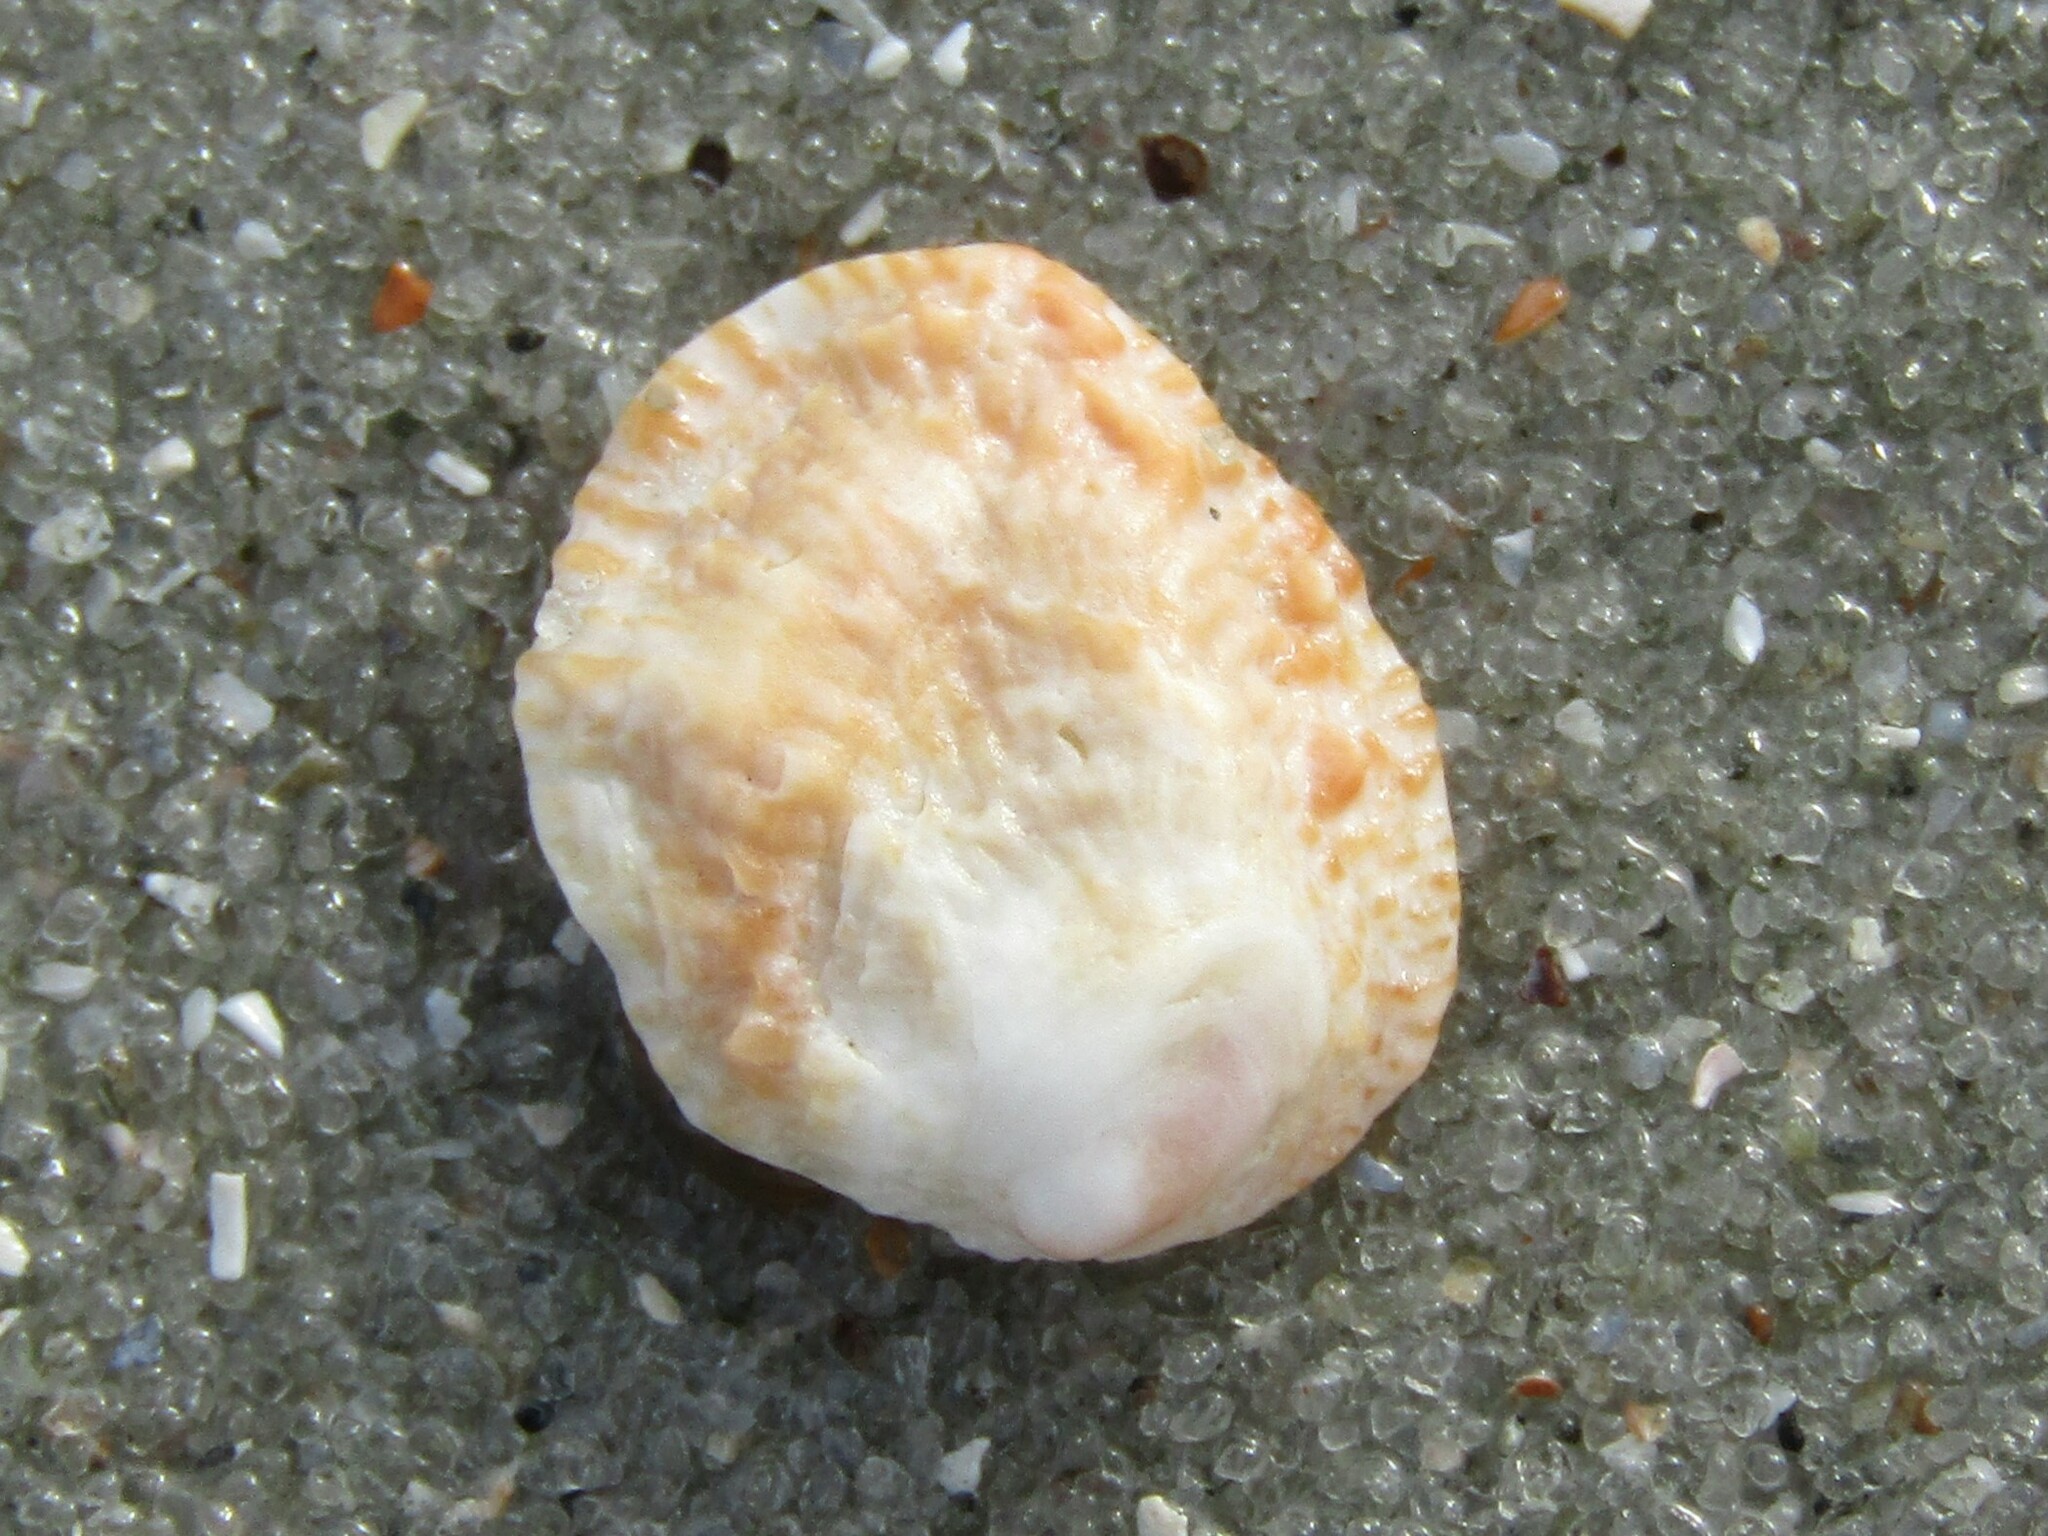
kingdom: Animalia
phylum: Mollusca
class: Bivalvia
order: Venerida
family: Chamidae
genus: Chama
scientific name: Chama congregata
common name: Corrugate jewelbox
